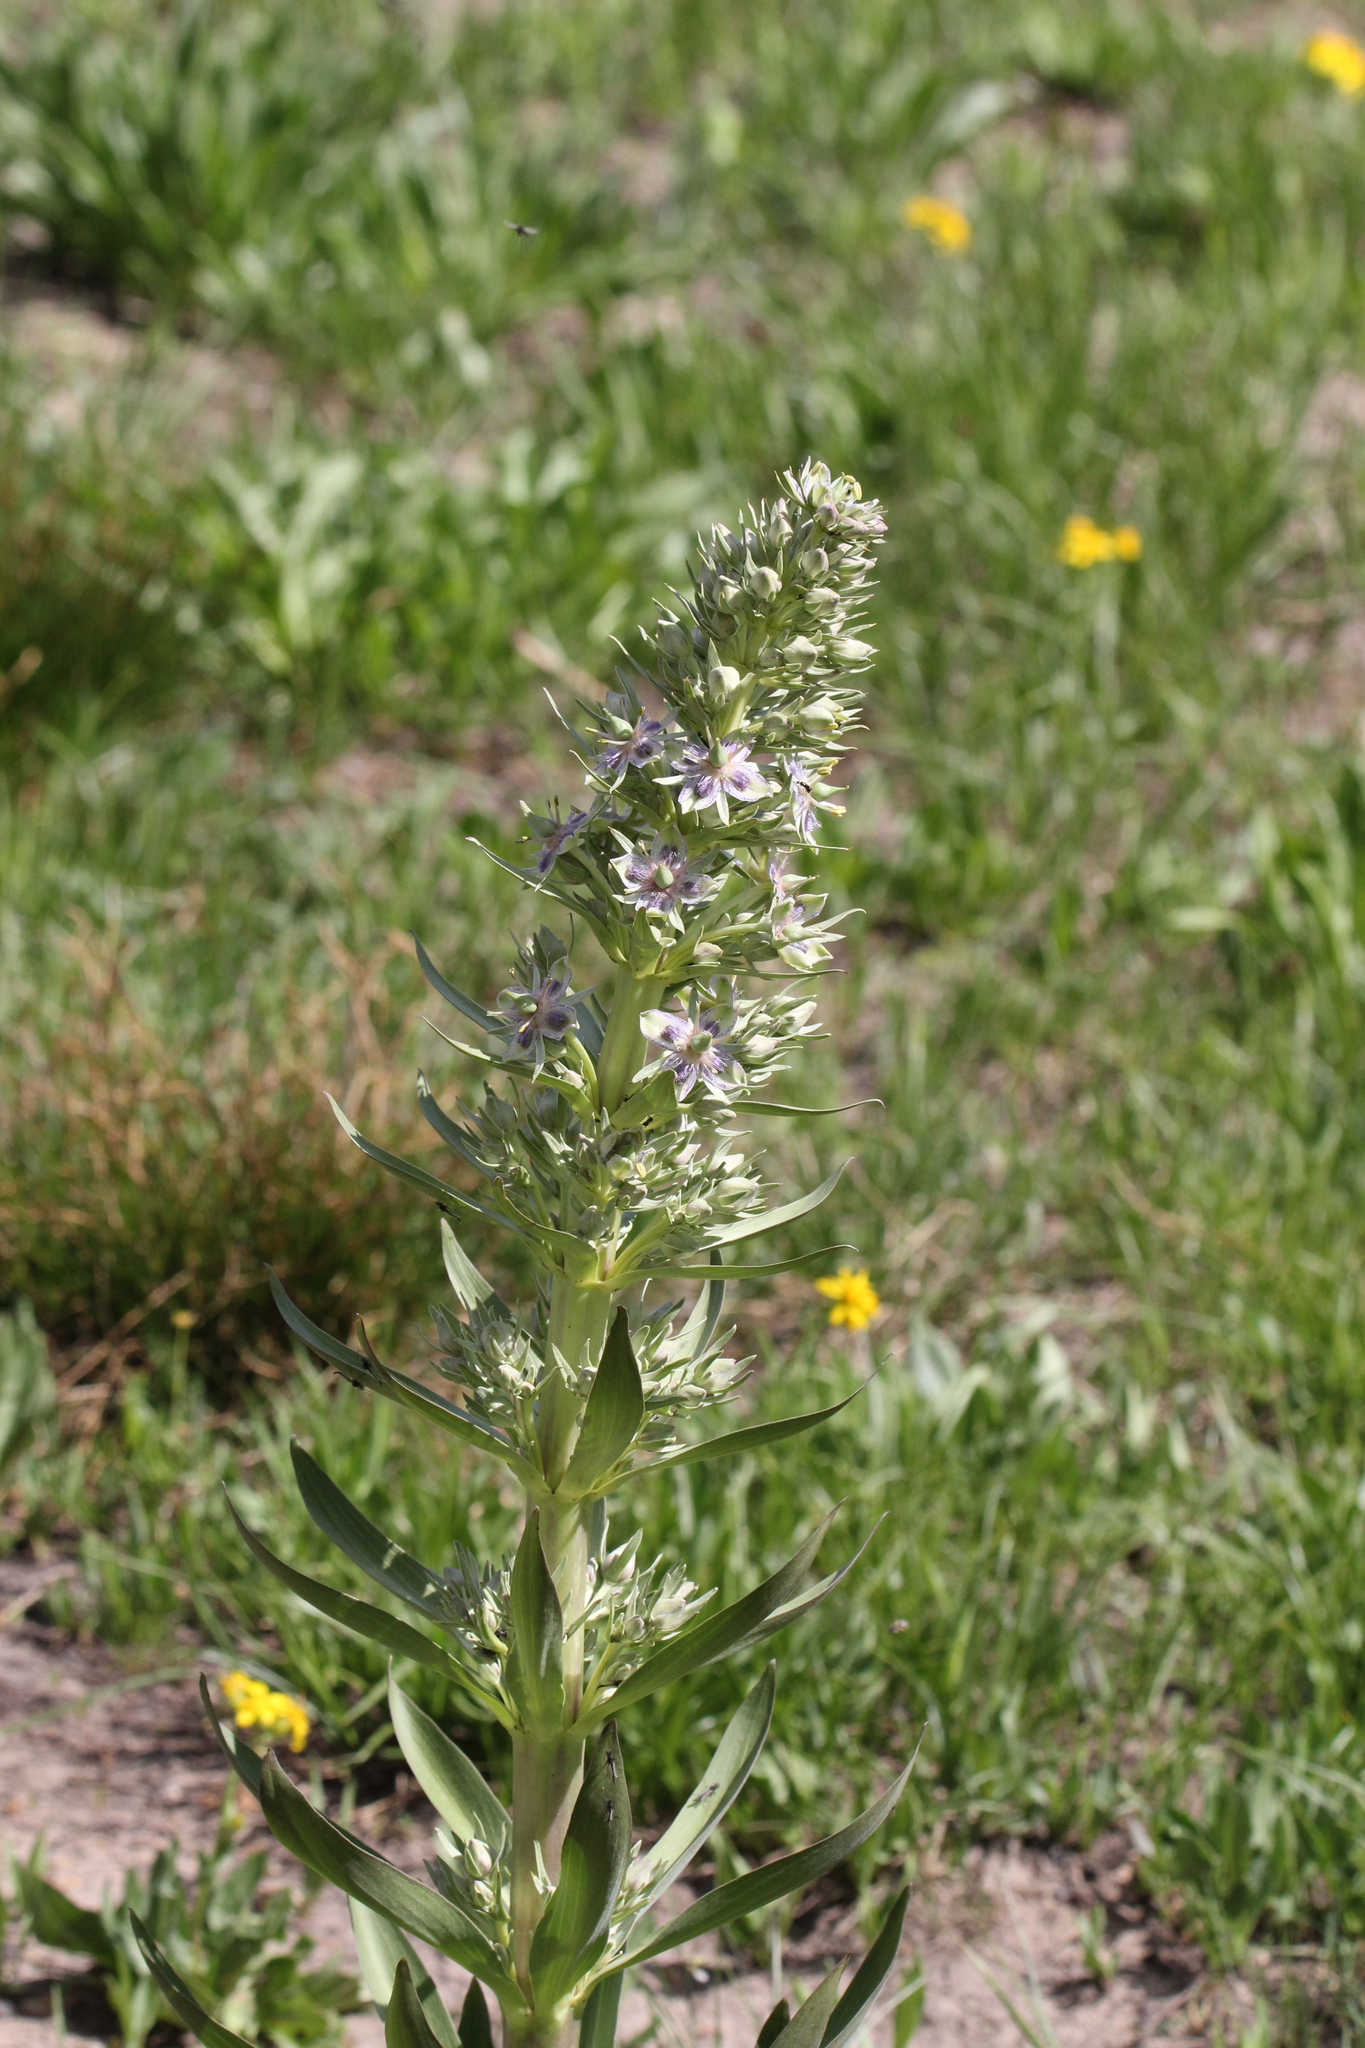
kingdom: Plantae
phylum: Tracheophyta
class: Magnoliopsida
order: Gentianales
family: Gentianaceae
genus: Frasera
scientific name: Frasera speciosa
